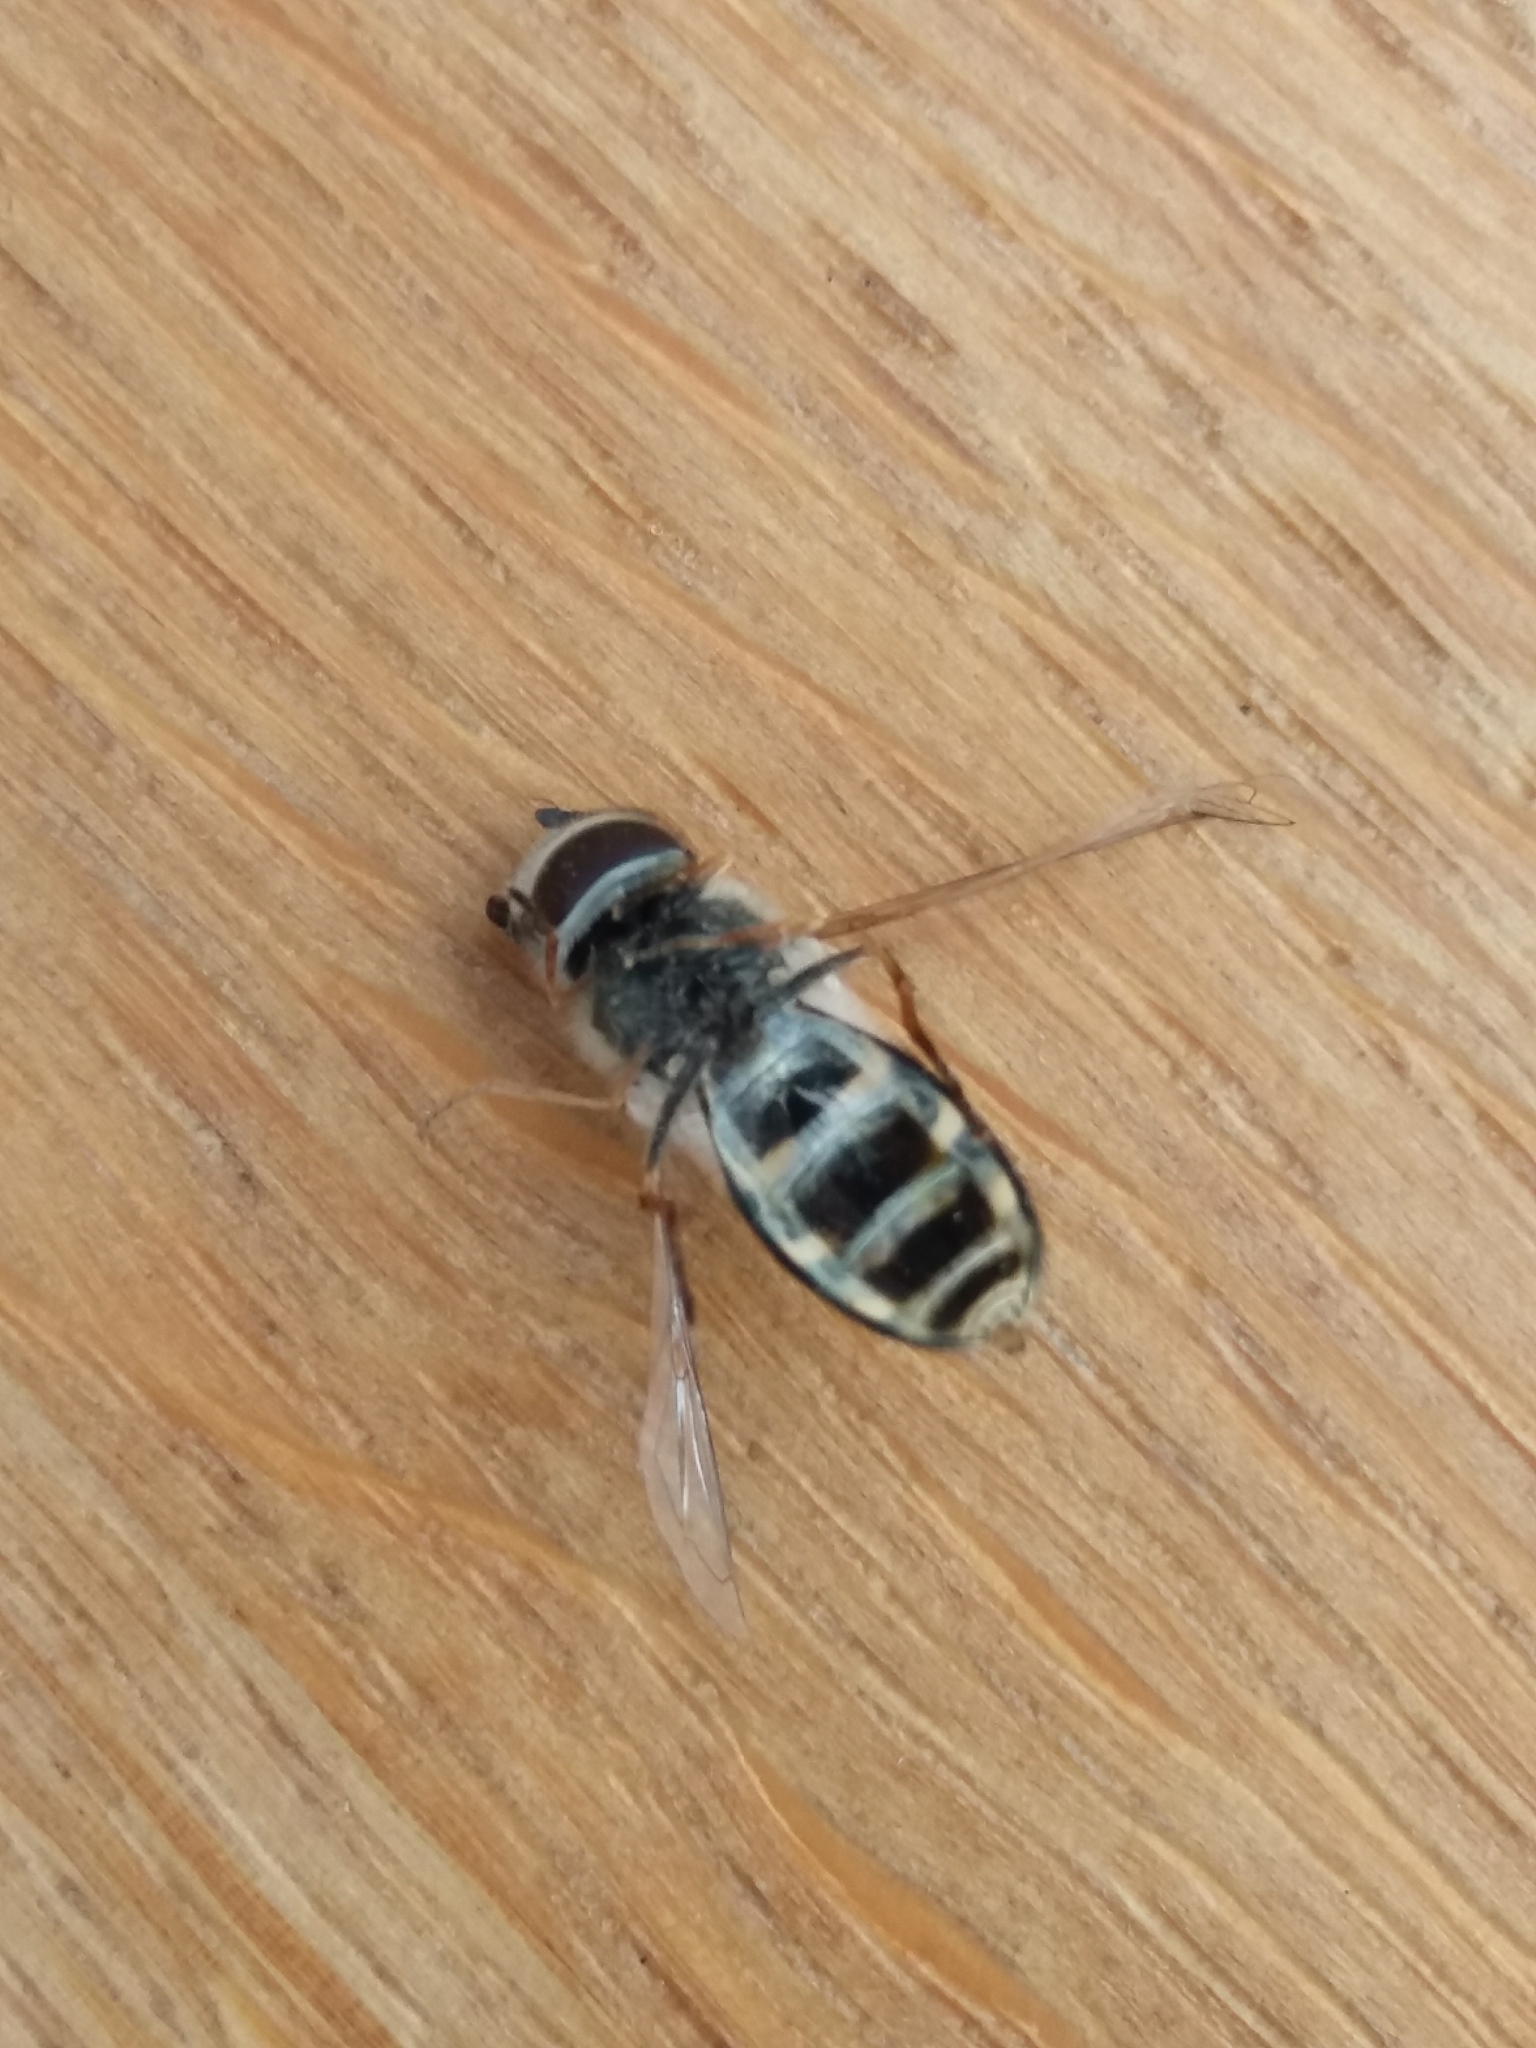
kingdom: Animalia
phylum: Arthropoda
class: Insecta
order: Diptera
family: Syrphidae
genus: Scaeva
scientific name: Scaeva pyrastri
